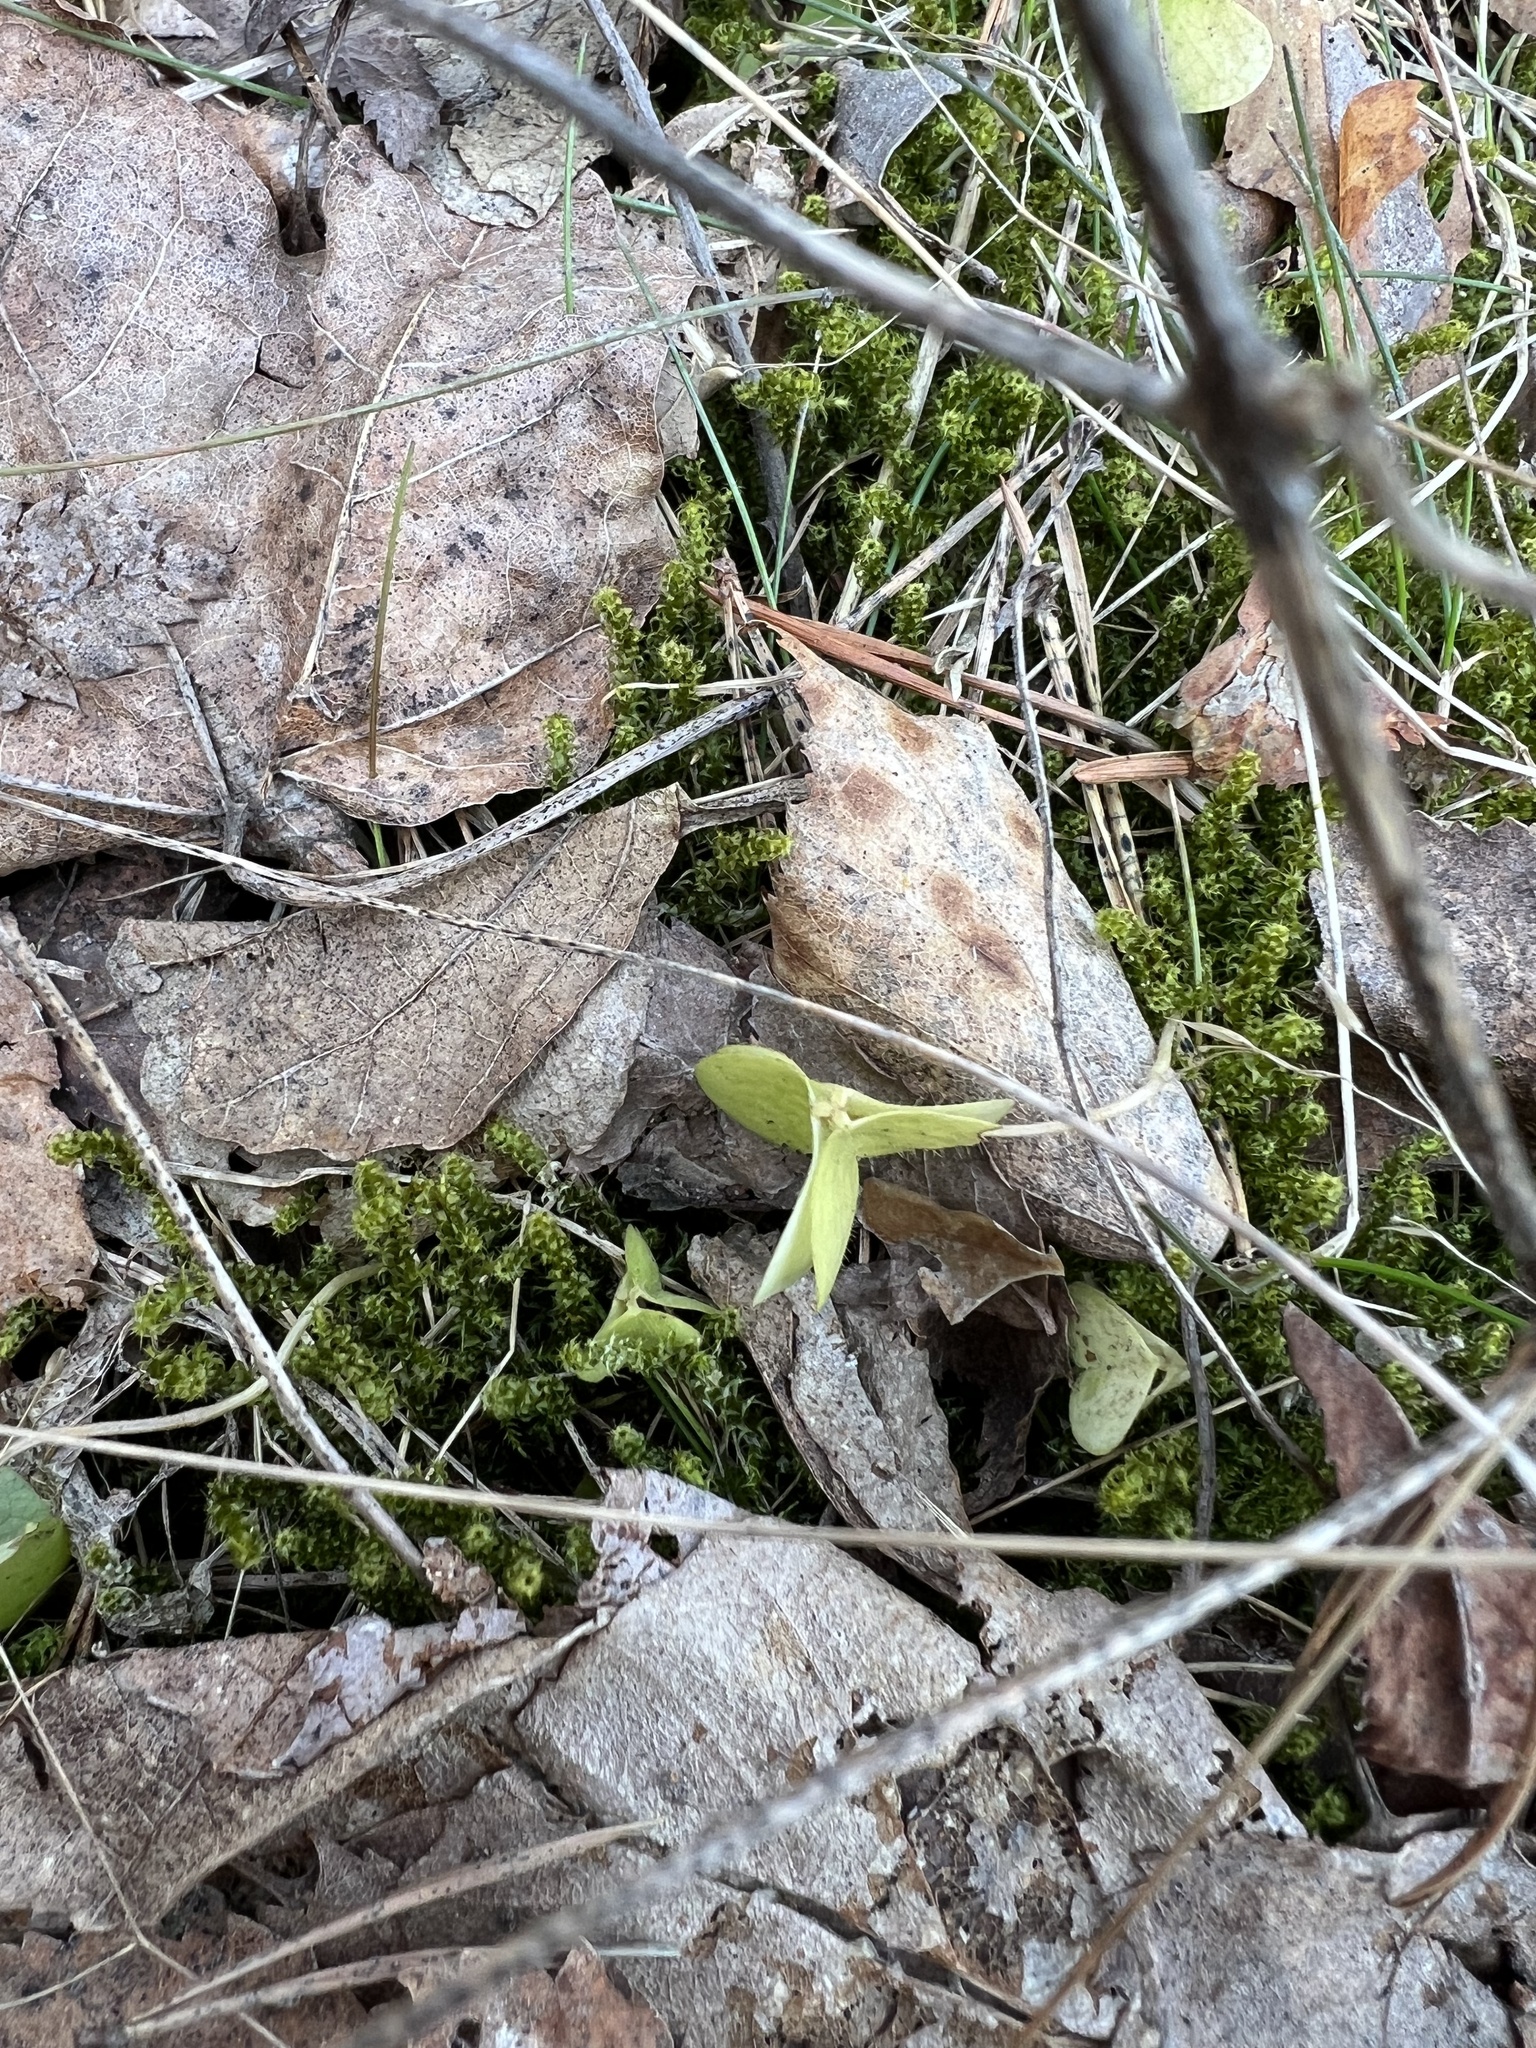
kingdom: Plantae
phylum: Tracheophyta
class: Magnoliopsida
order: Oxalidales
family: Oxalidaceae
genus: Oxalis
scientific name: Oxalis acetosella
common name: Wood-sorrel
